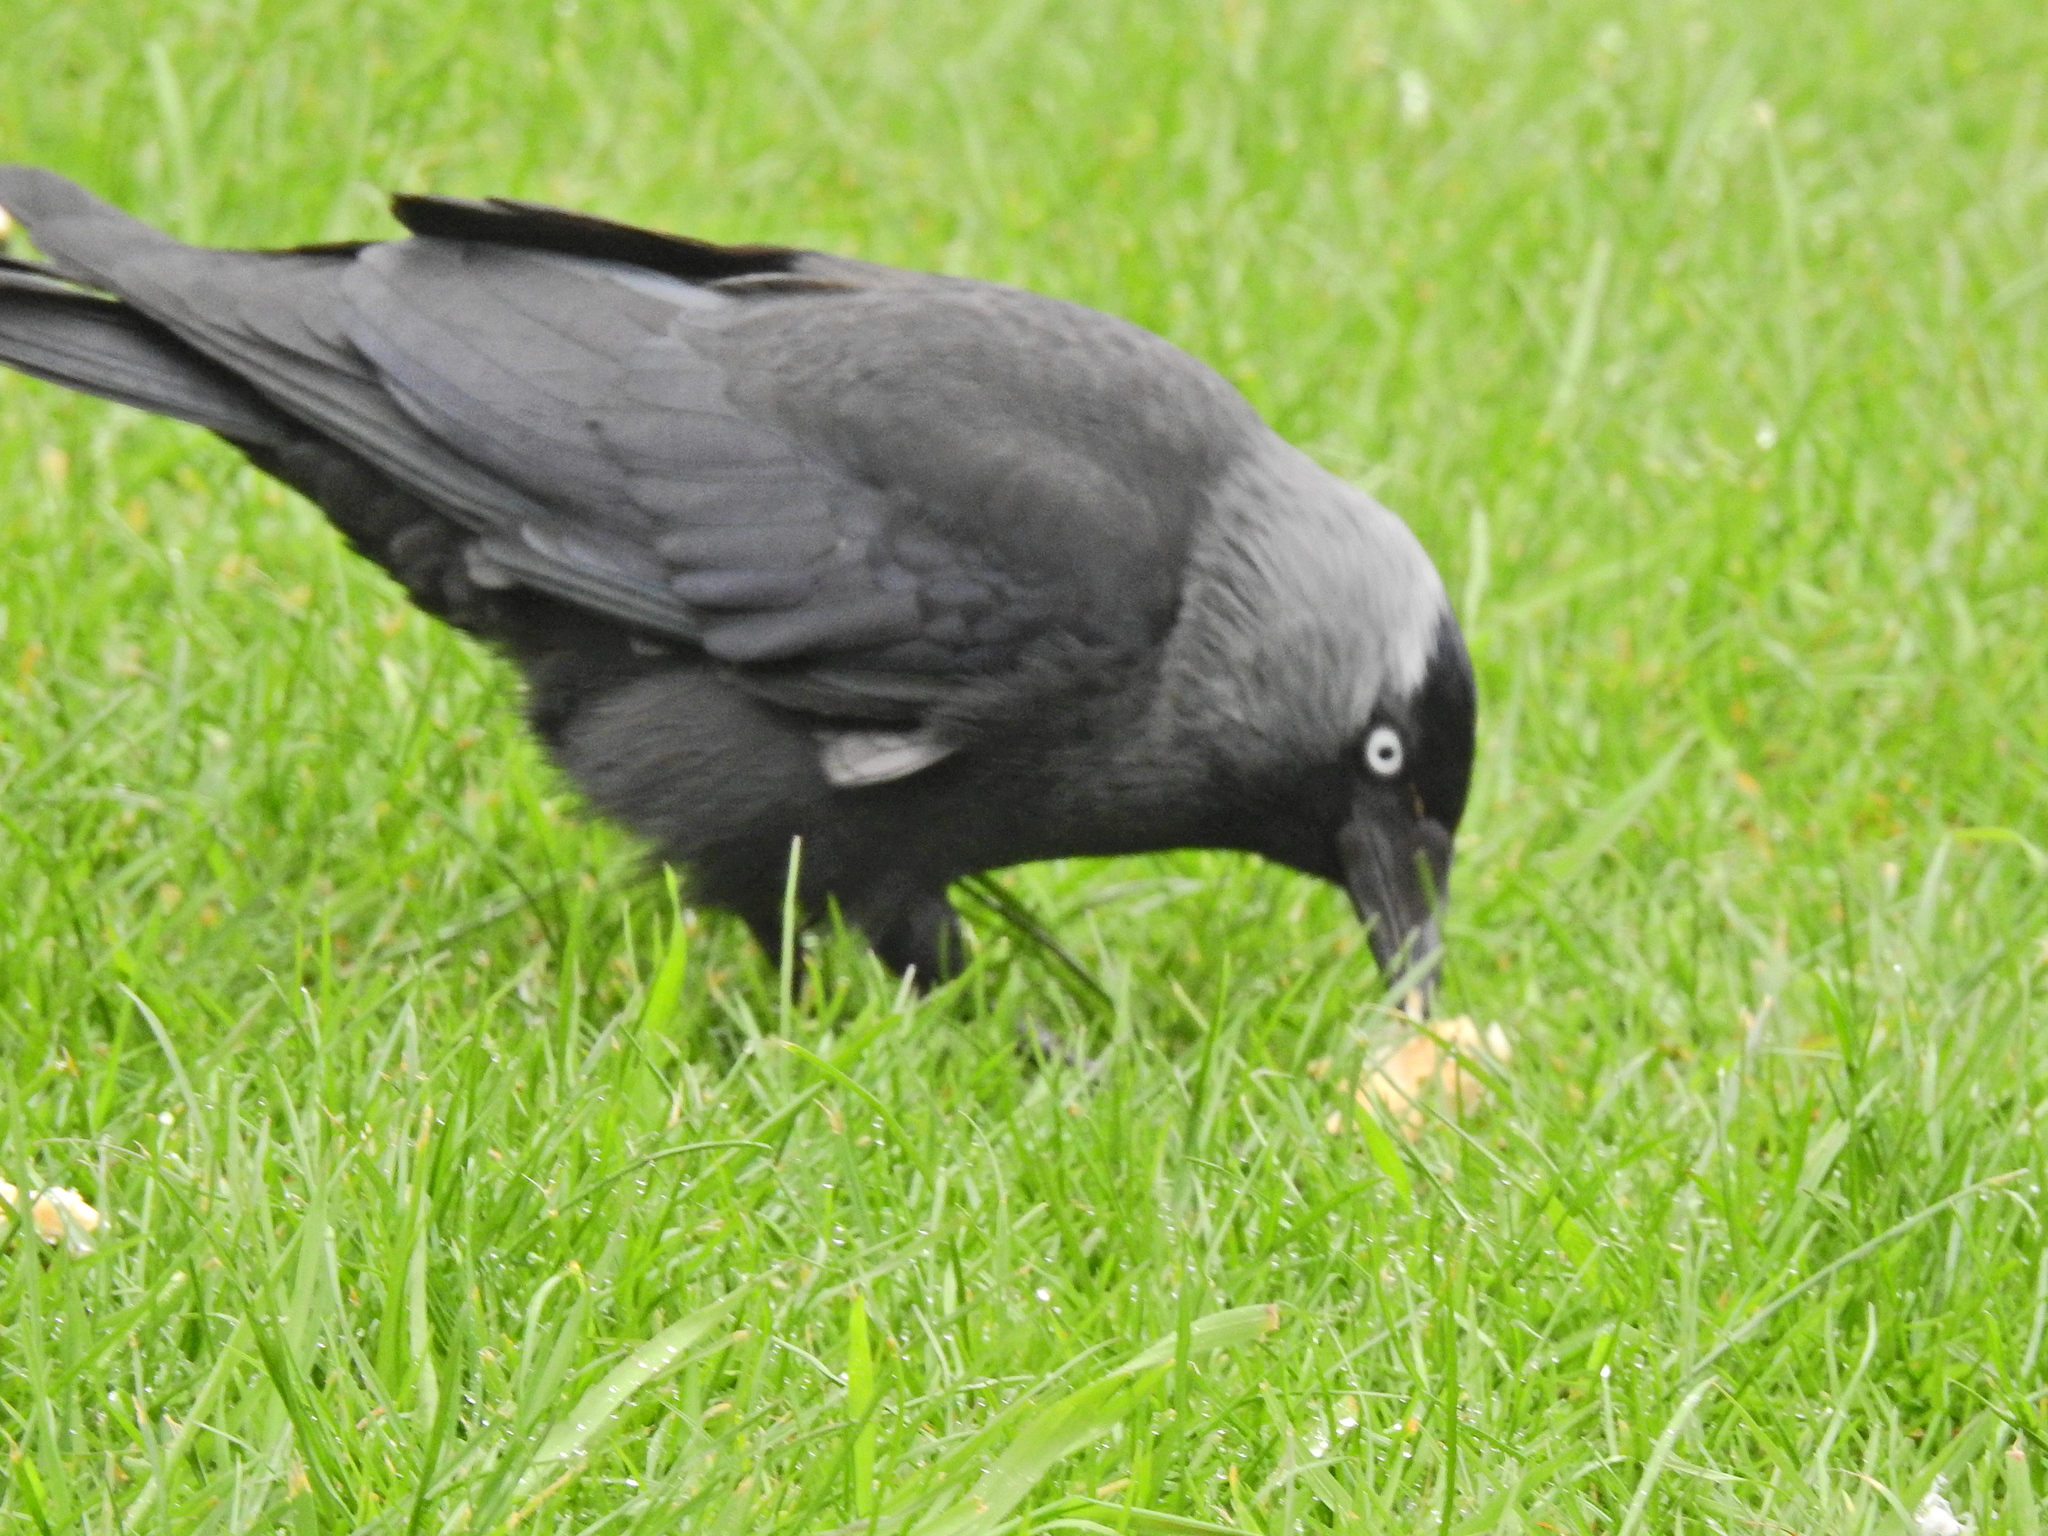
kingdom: Animalia
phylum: Chordata
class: Aves
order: Passeriformes
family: Corvidae
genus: Coloeus
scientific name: Coloeus monedula
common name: Western jackdaw
